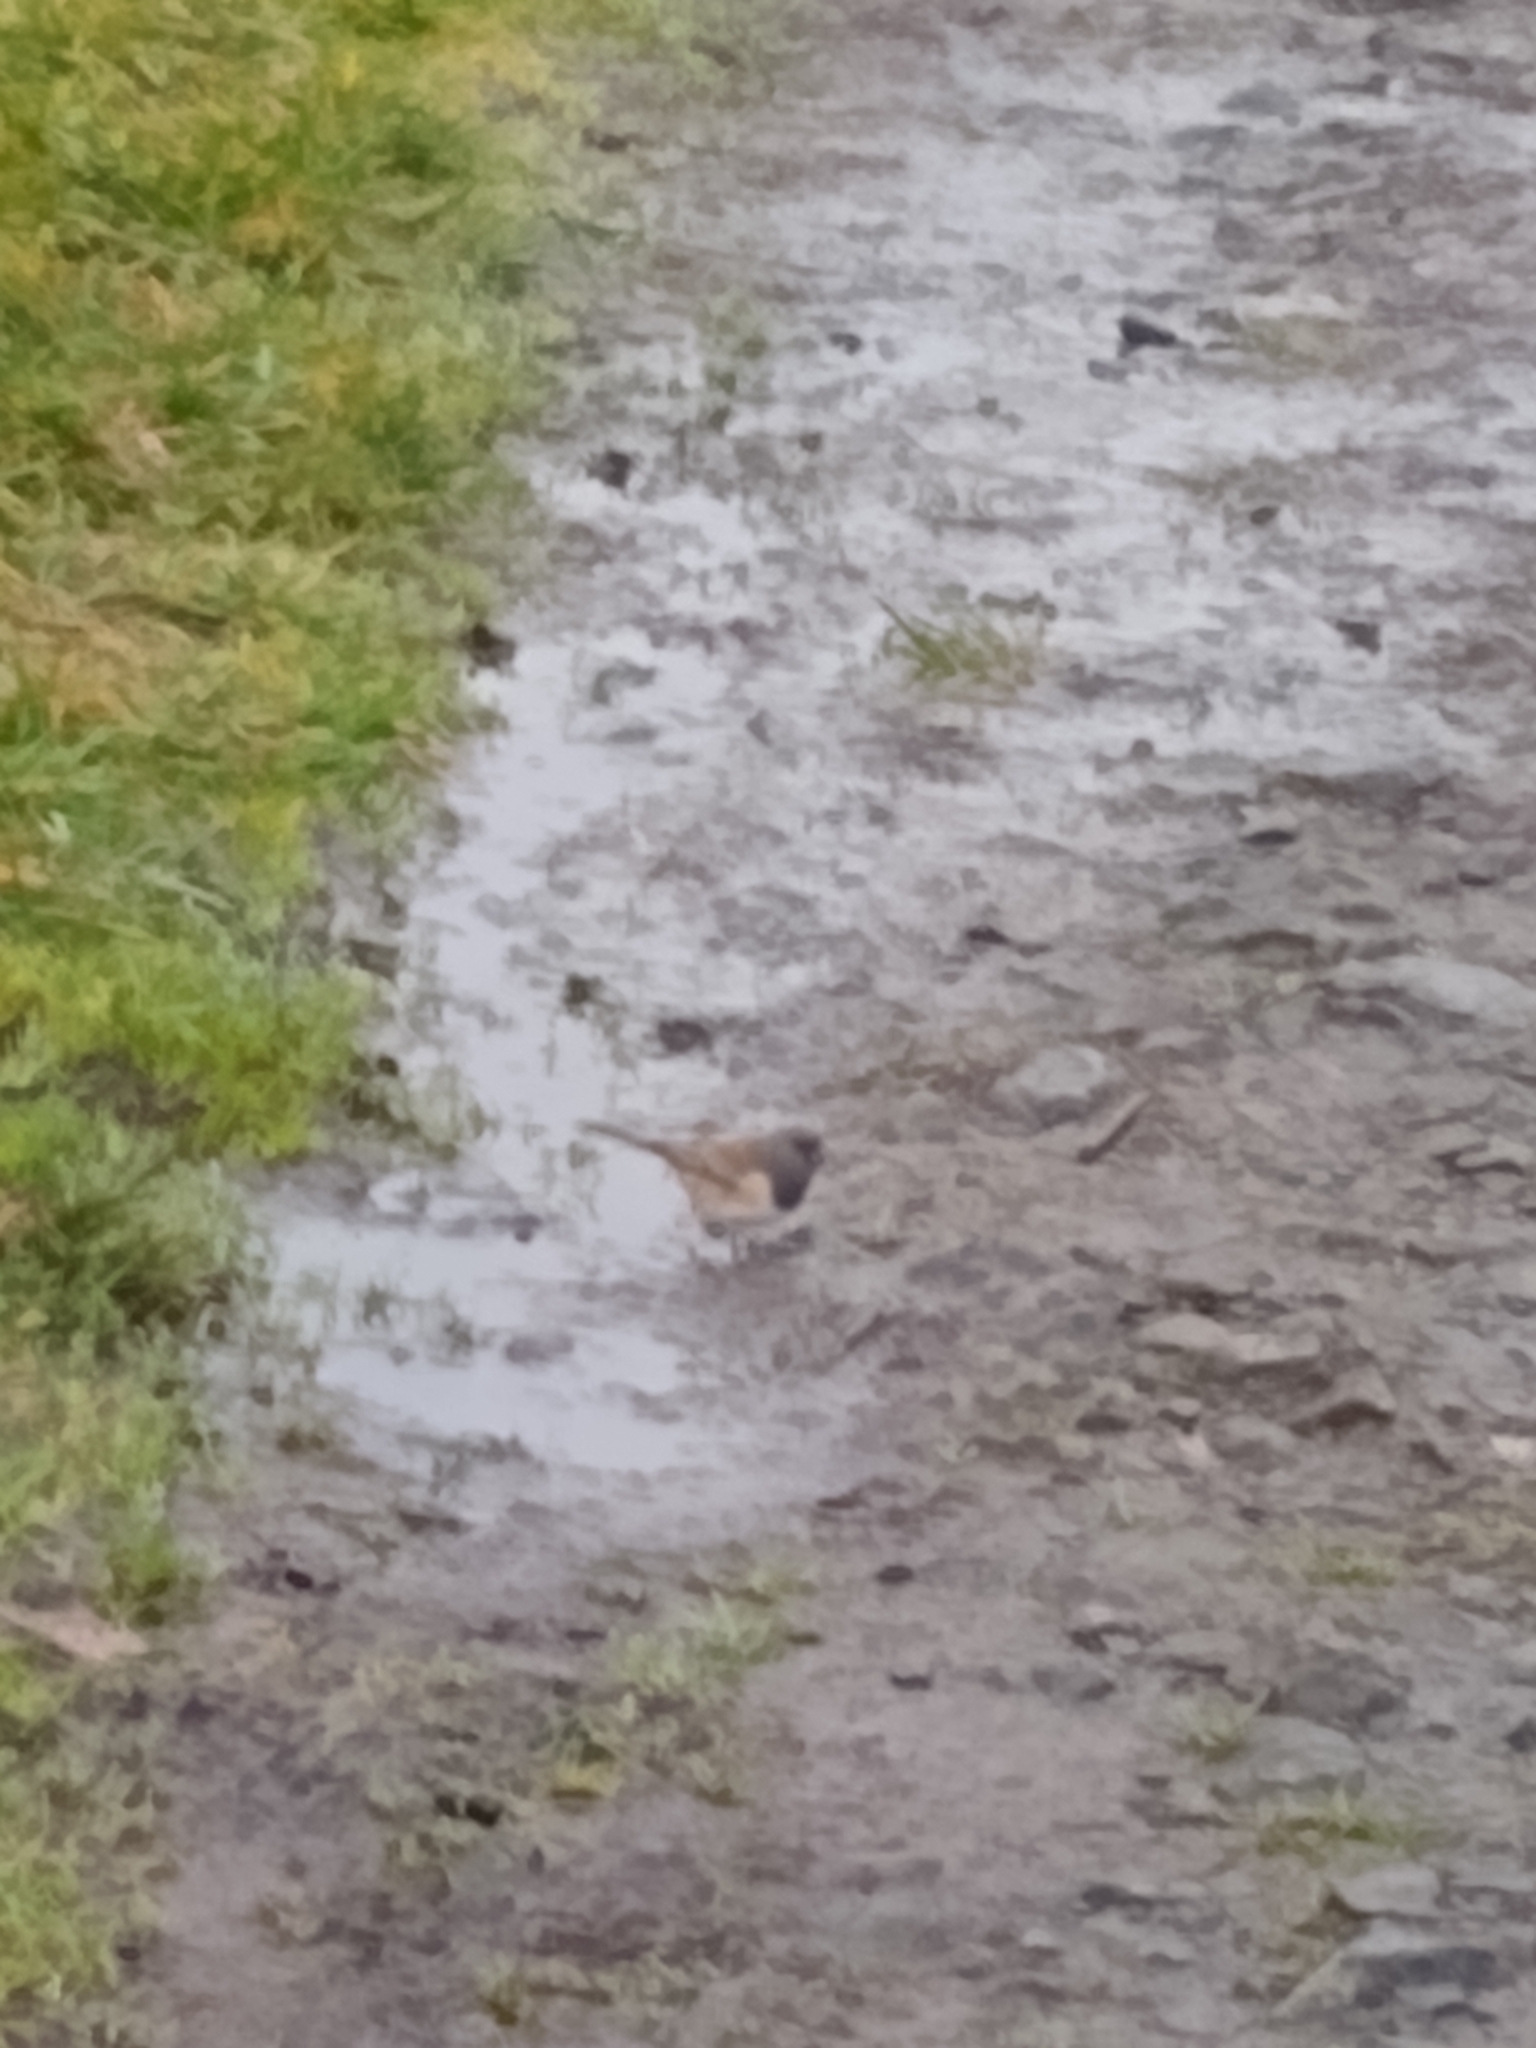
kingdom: Animalia
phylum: Chordata
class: Aves
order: Passeriformes
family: Passerellidae
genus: Junco
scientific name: Junco hyemalis
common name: Dark-eyed junco
